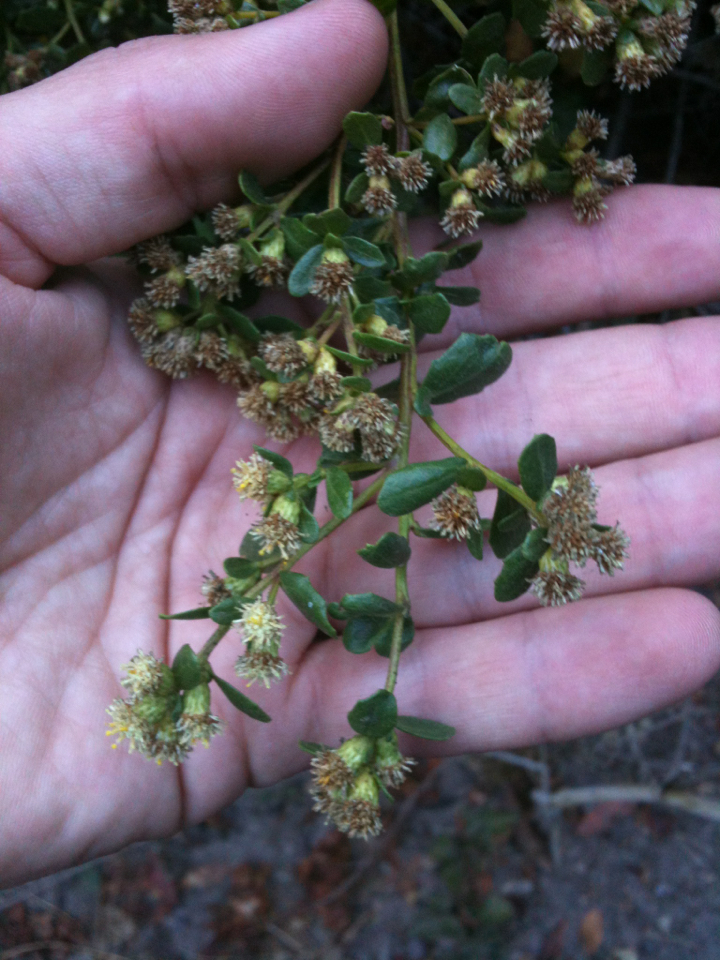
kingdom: Plantae
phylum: Tracheophyta
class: Magnoliopsida
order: Asterales
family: Asteraceae
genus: Baccharis
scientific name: Baccharis pilularis
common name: Coyotebrush
